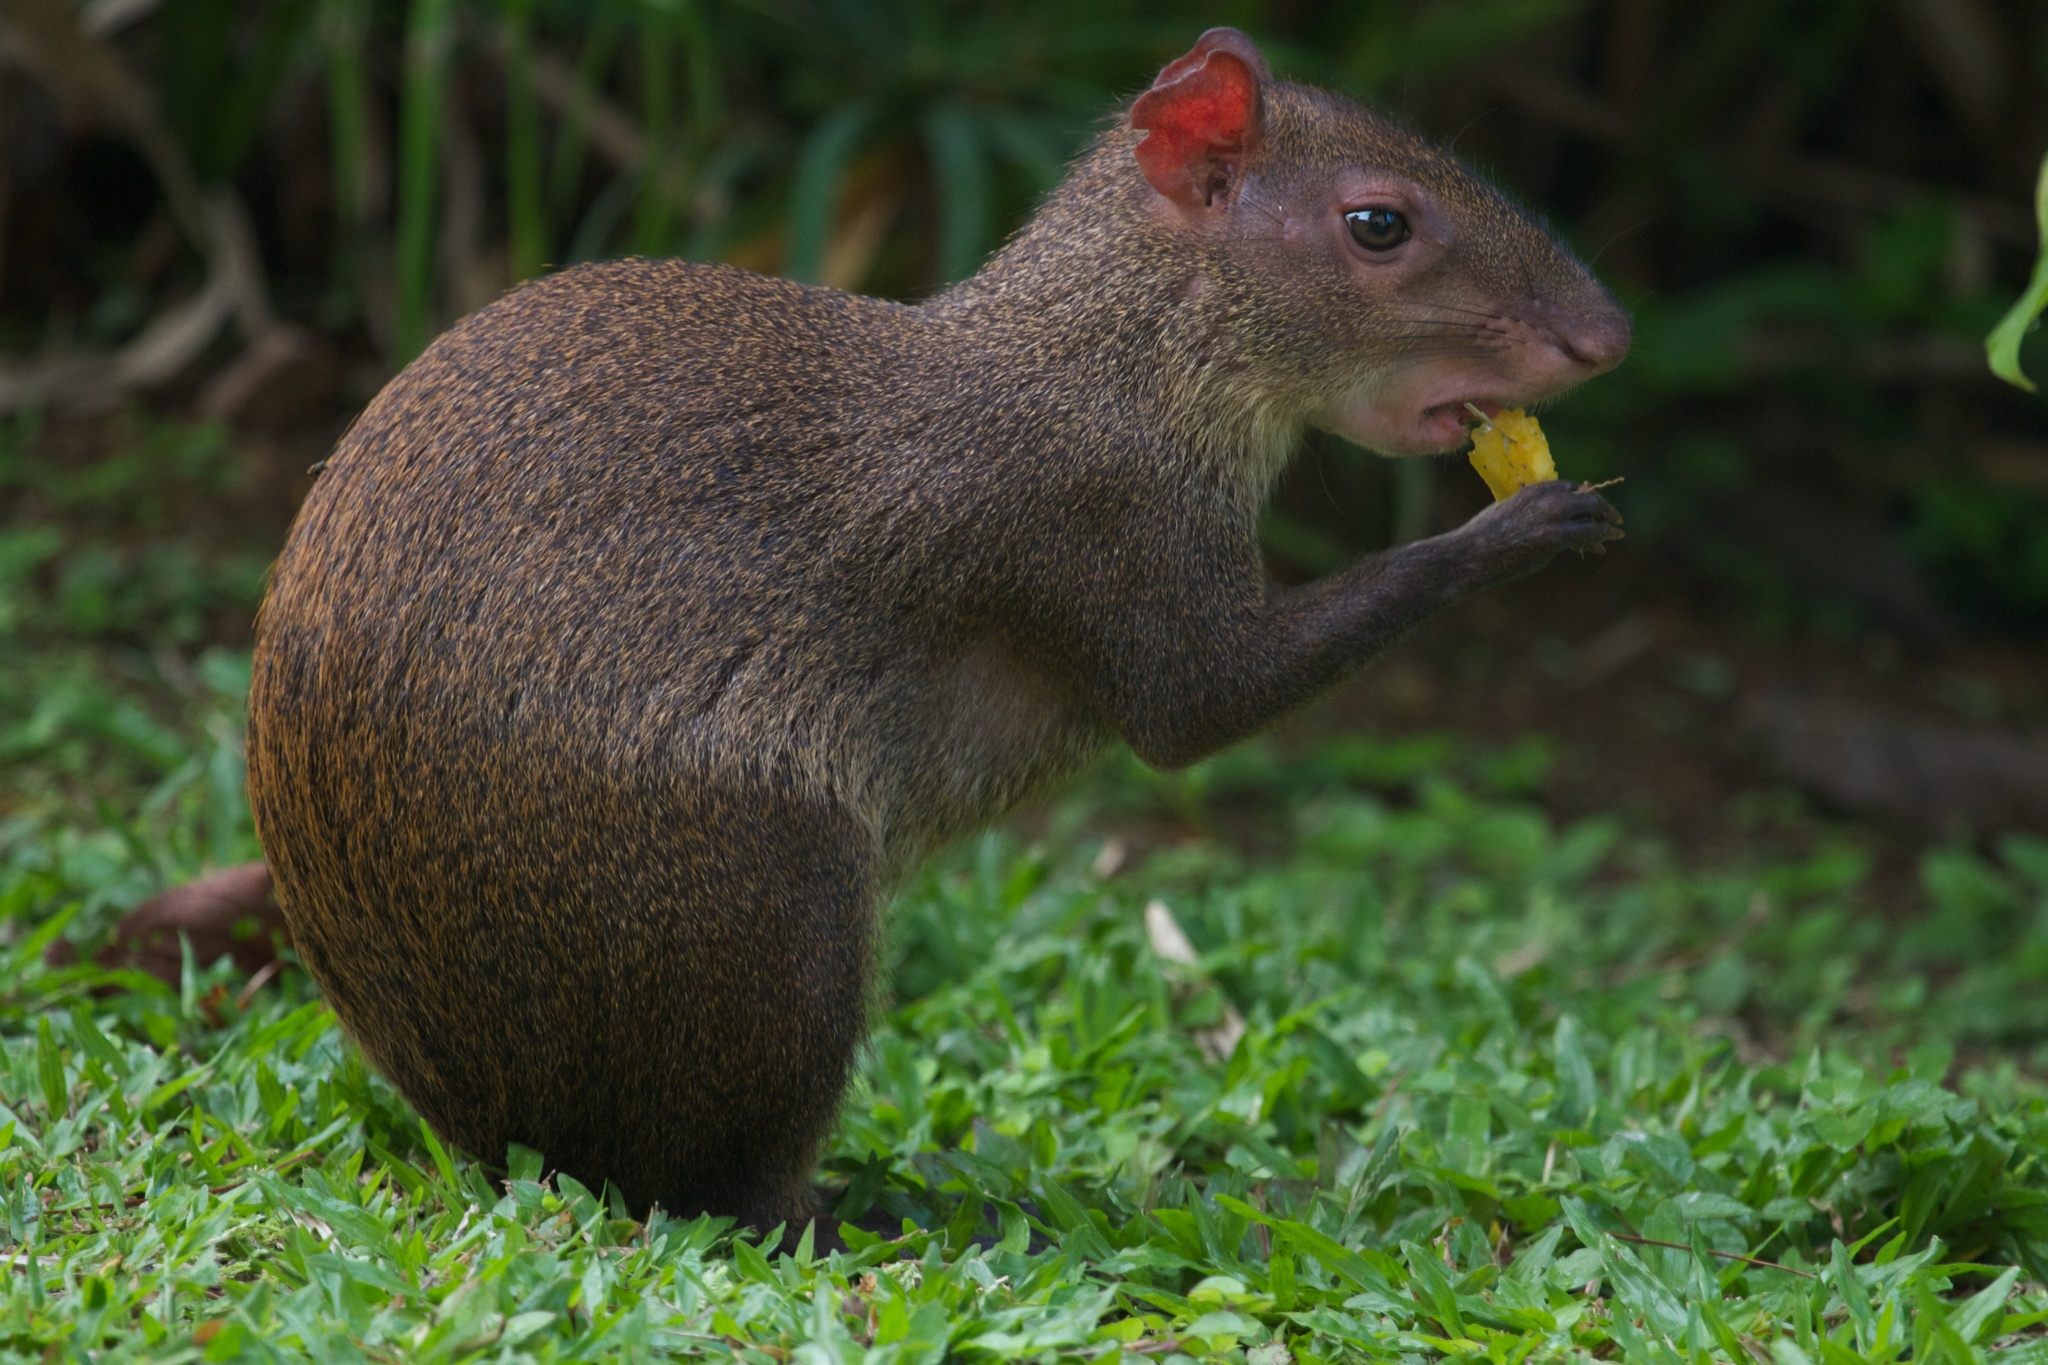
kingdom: Animalia
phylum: Chordata
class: Mammalia
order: Rodentia
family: Dasyproctidae
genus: Dasyprocta
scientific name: Dasyprocta punctata
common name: Central american agouti
